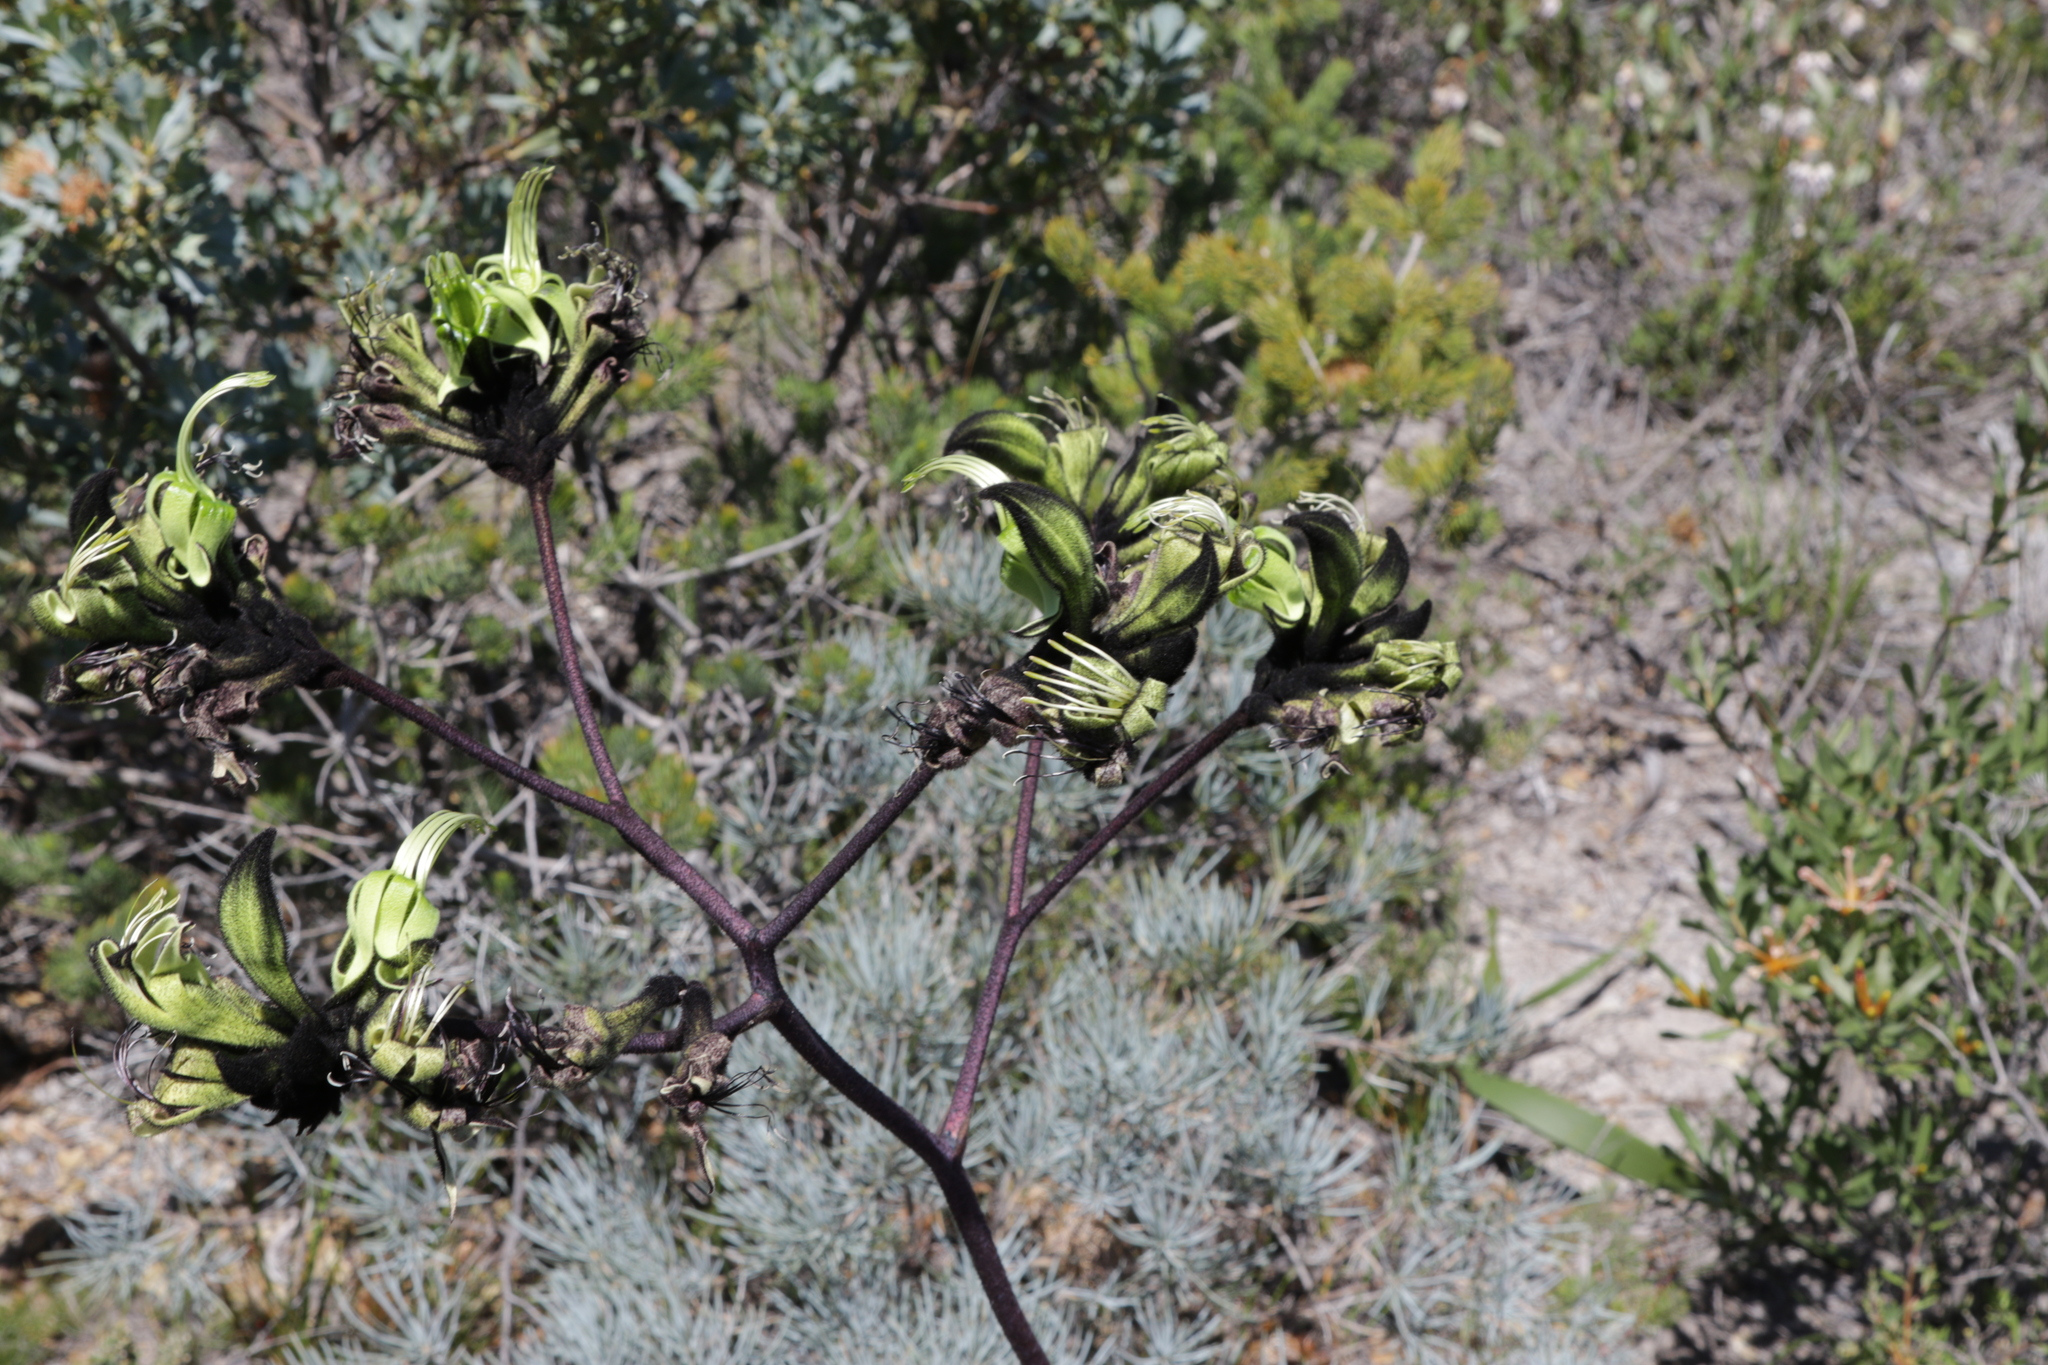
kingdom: Plantae
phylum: Tracheophyta
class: Liliopsida
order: Commelinales
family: Haemodoraceae
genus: Macropidia
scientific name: Macropidia fuliginosa
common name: Black kangaroo-paw
